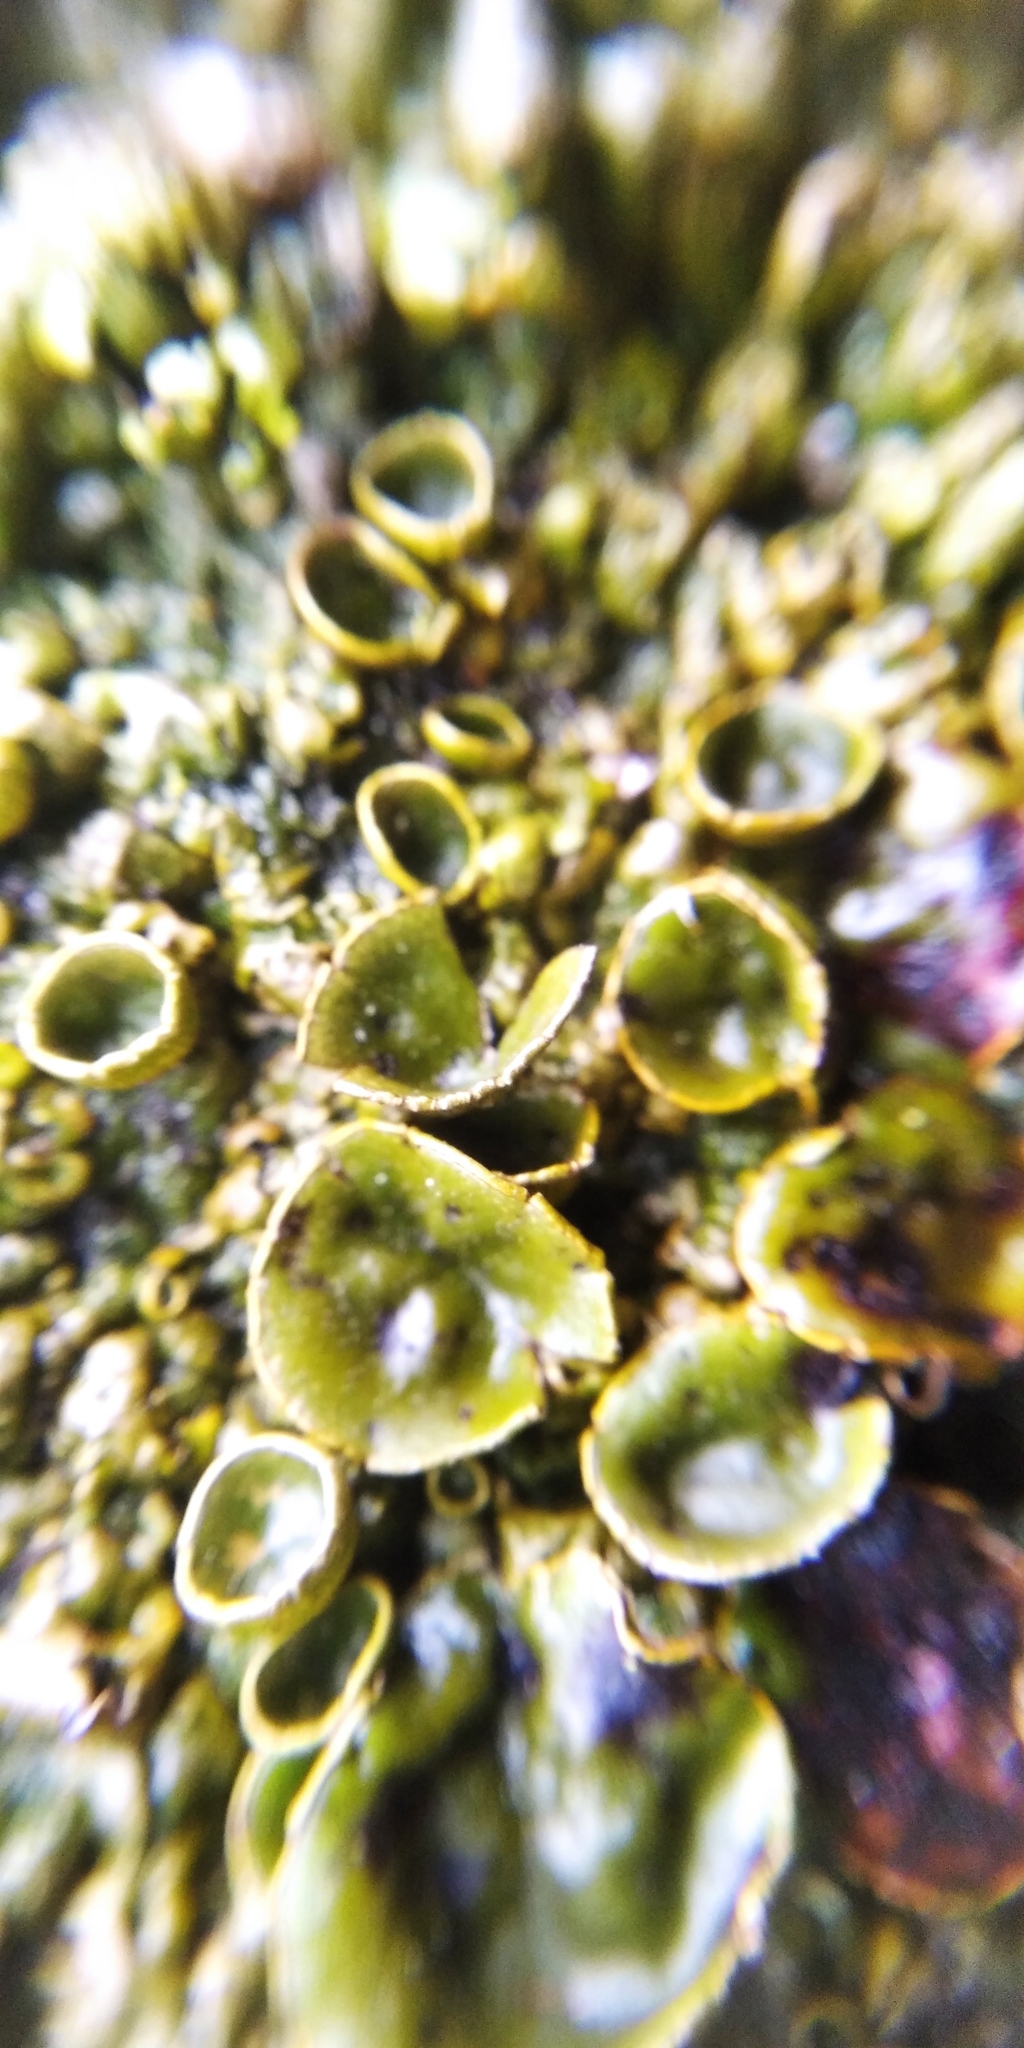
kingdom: Fungi
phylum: Ascomycota
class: Lecanoromycetes
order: Lecanorales
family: Parmeliaceae
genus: Xanthoparmelia
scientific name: Xanthoparmelia pulla
